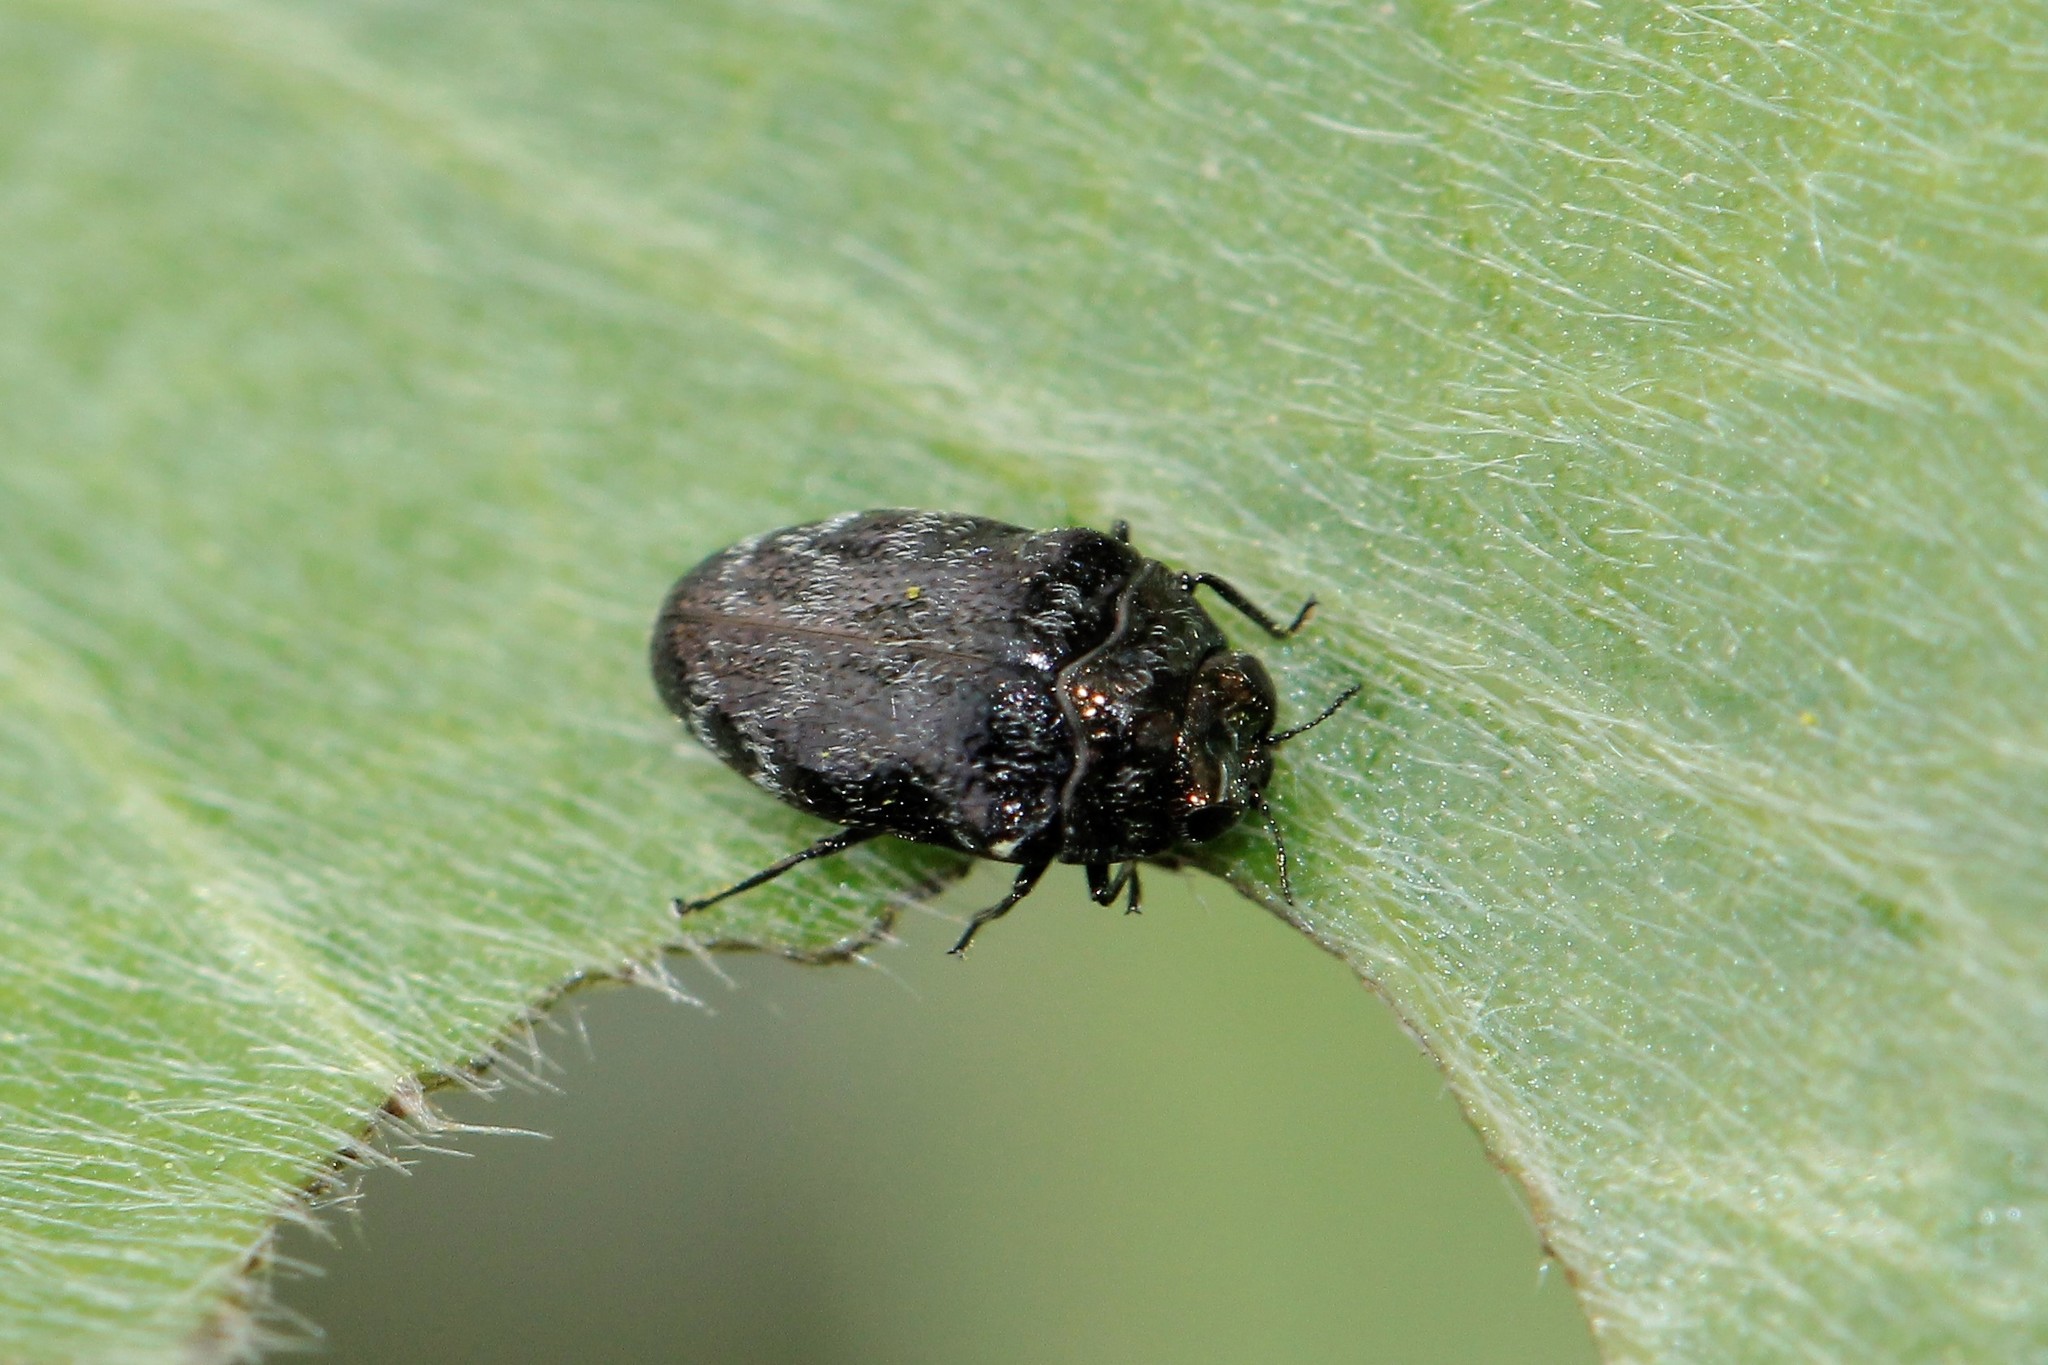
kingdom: Animalia
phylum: Arthropoda
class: Insecta
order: Coleoptera
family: Buprestidae
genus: Trachys
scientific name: Trachys minutus
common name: Metallic wood-boring beetle
